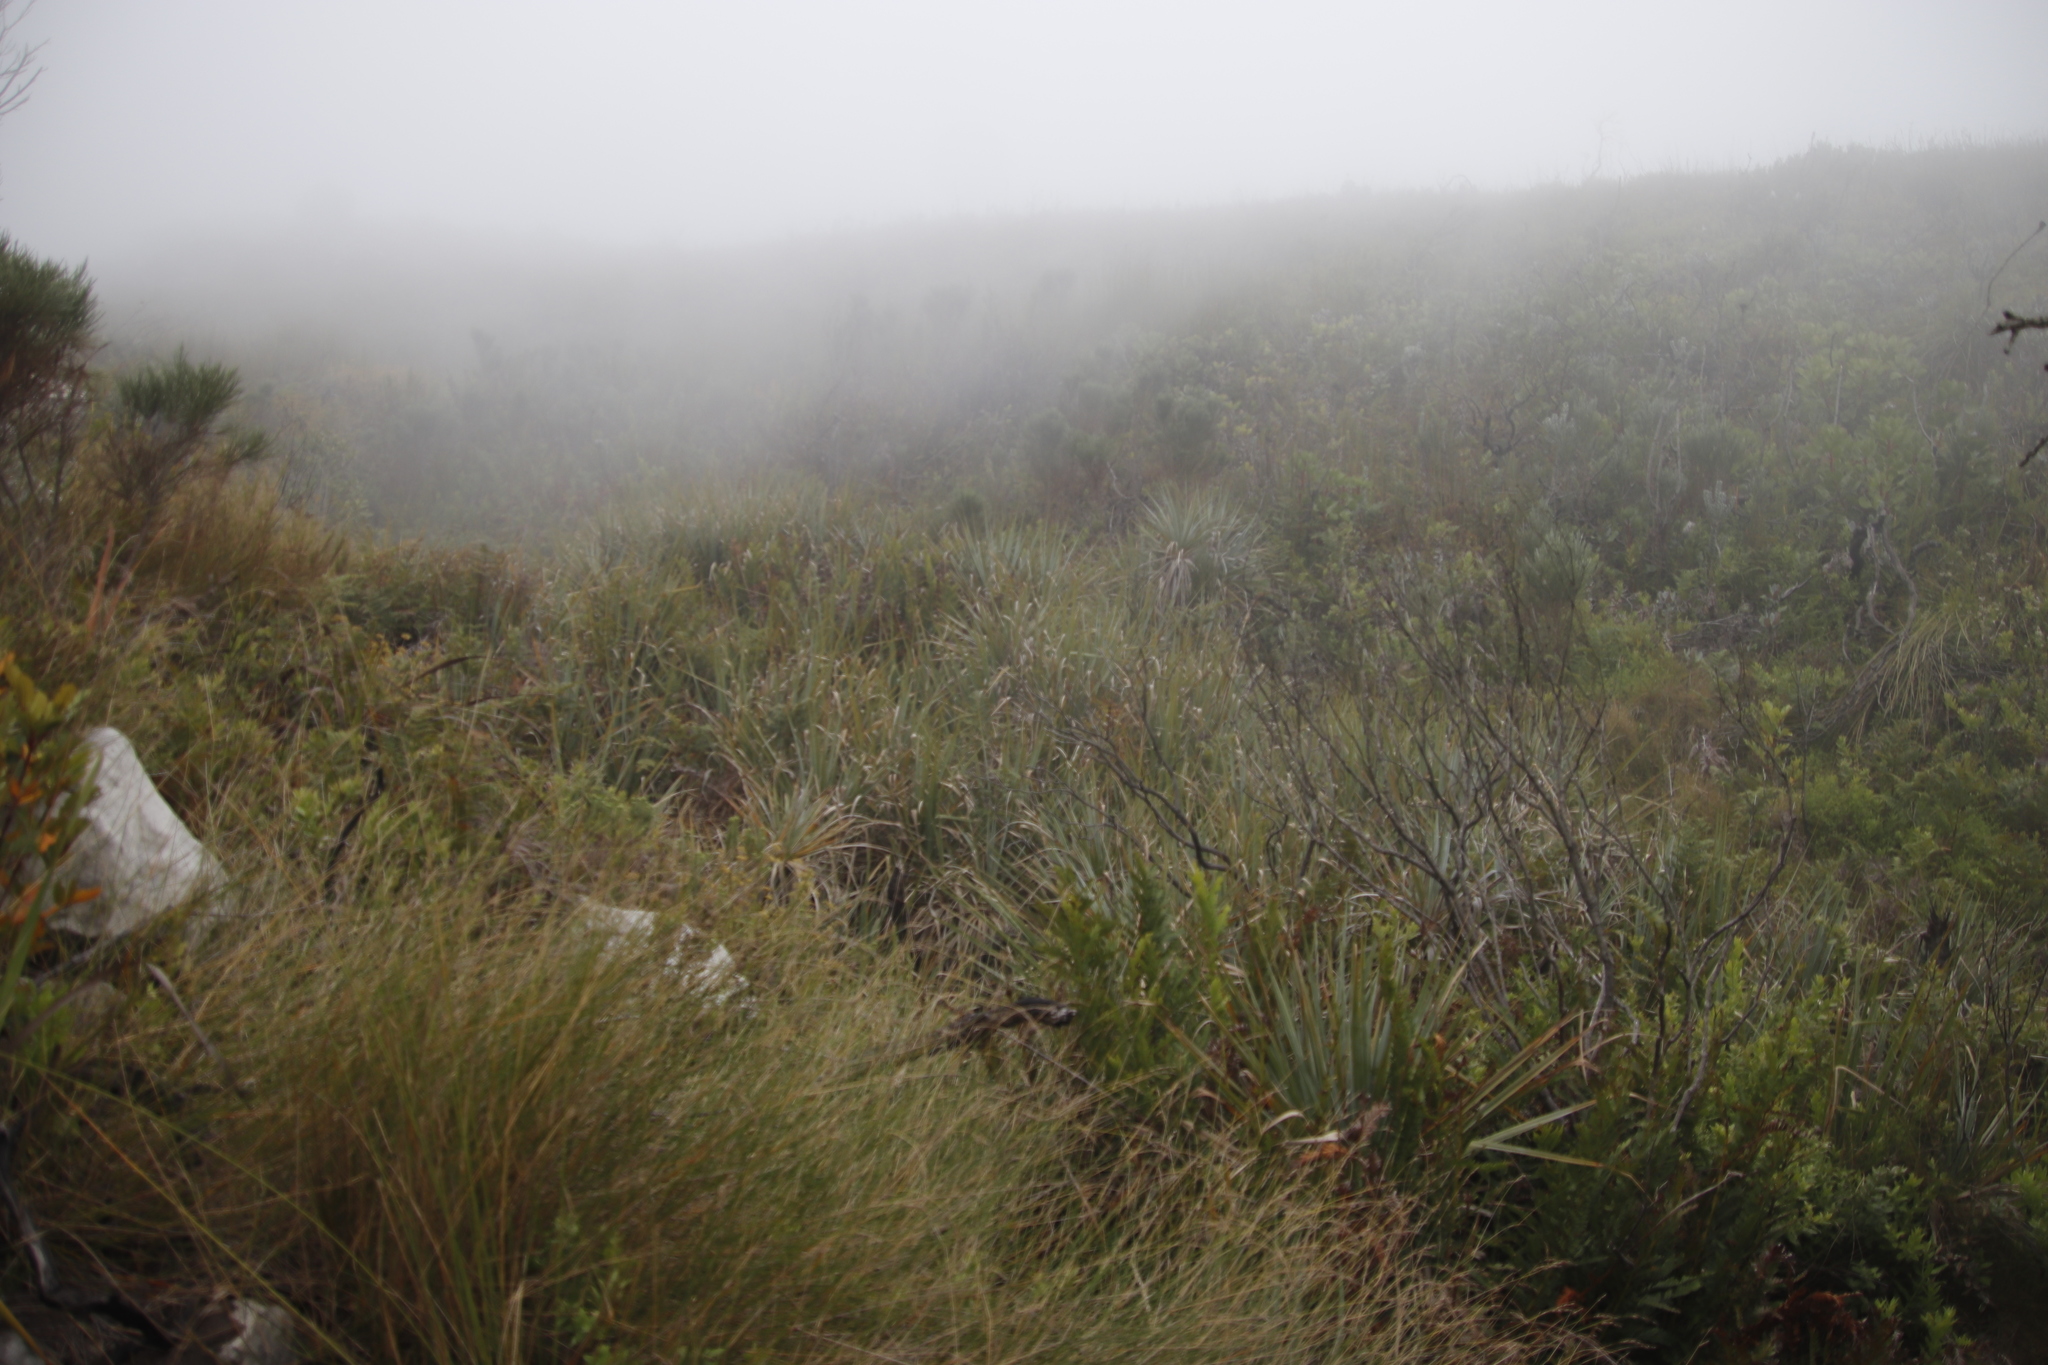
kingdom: Plantae
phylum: Tracheophyta
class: Liliopsida
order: Poales
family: Thurniaceae
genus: Prionium
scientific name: Prionium serratum
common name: Palmiet
